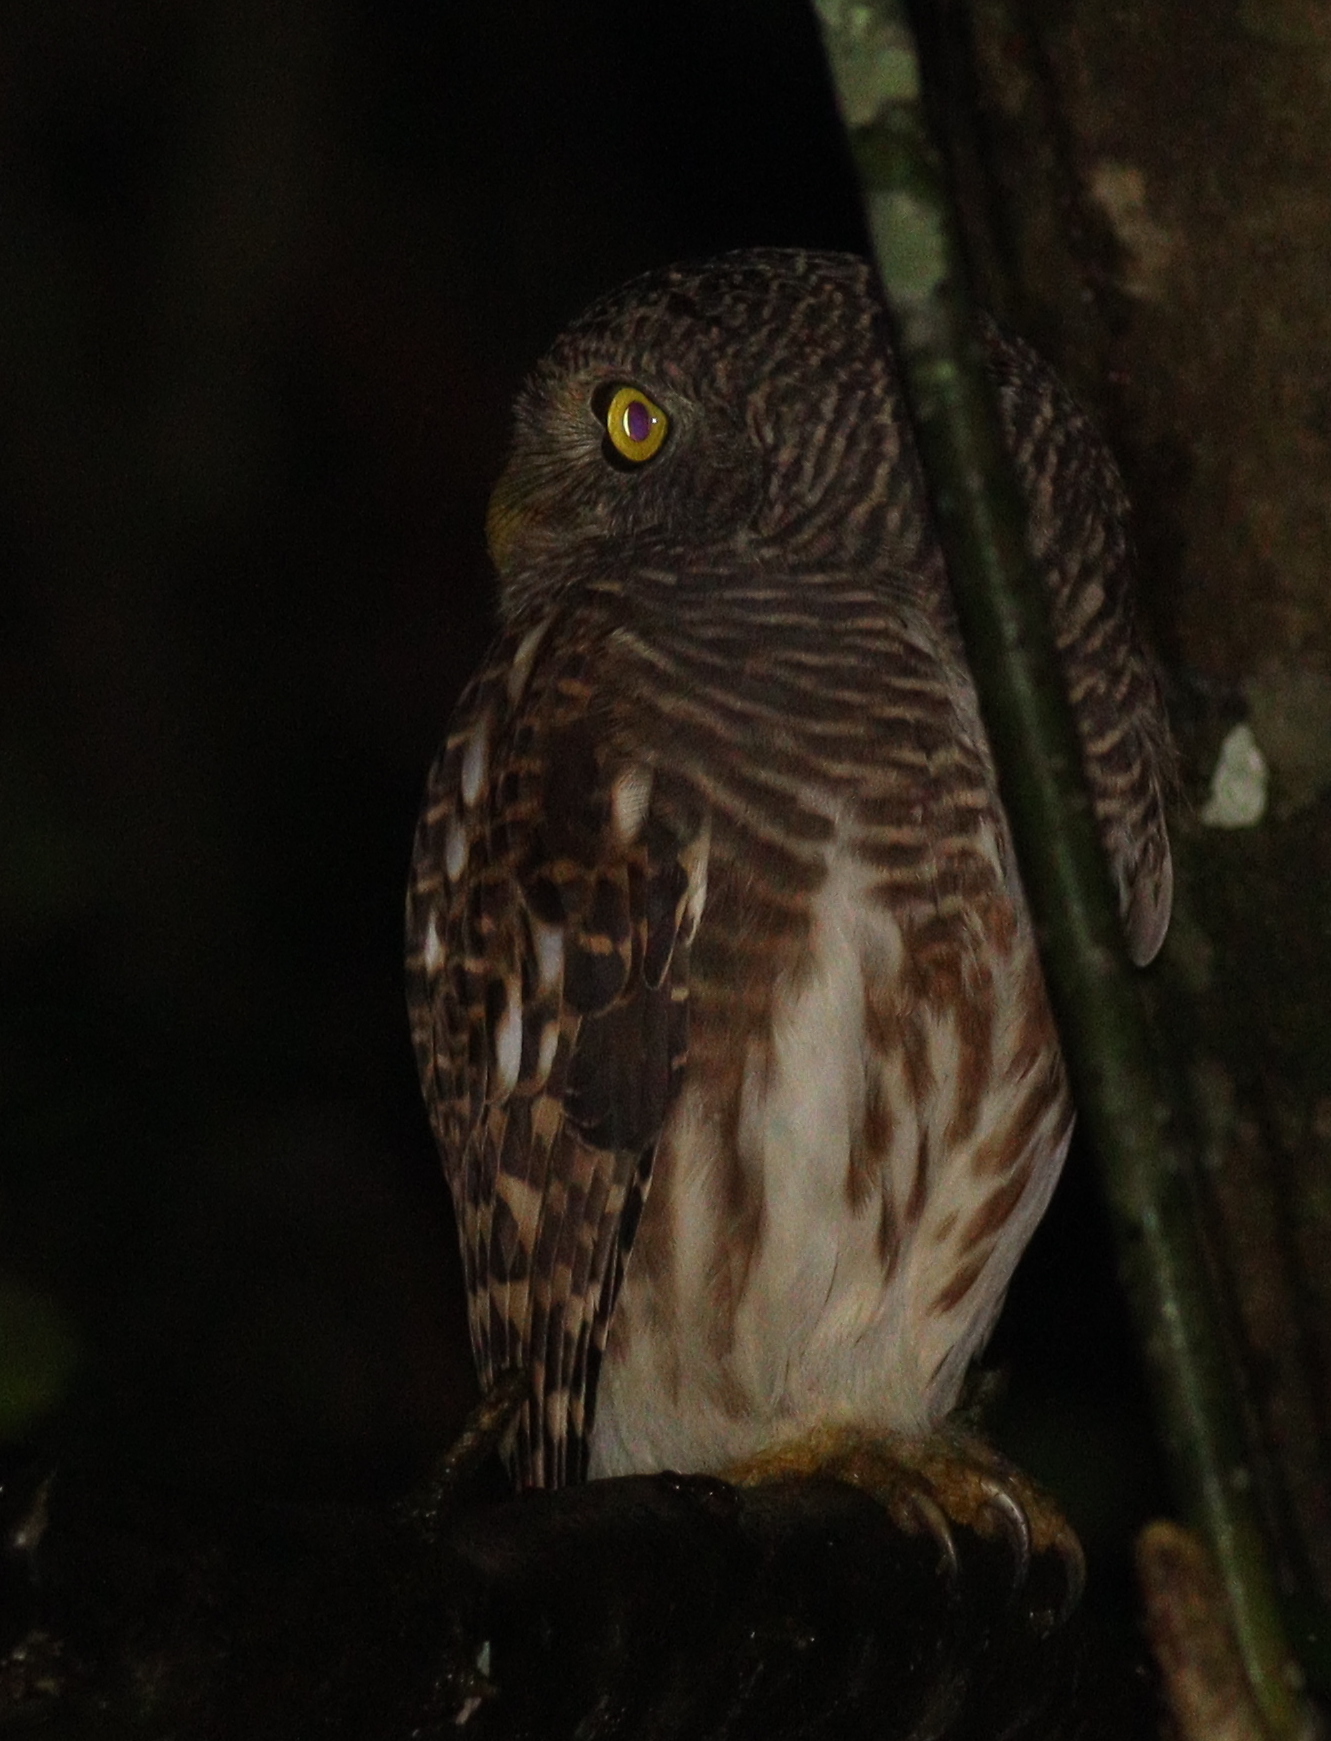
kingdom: Animalia
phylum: Chordata
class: Aves
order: Strigiformes
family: Strigidae
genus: Glaucidium
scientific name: Glaucidium cuculoides
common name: Asian barred owlet
